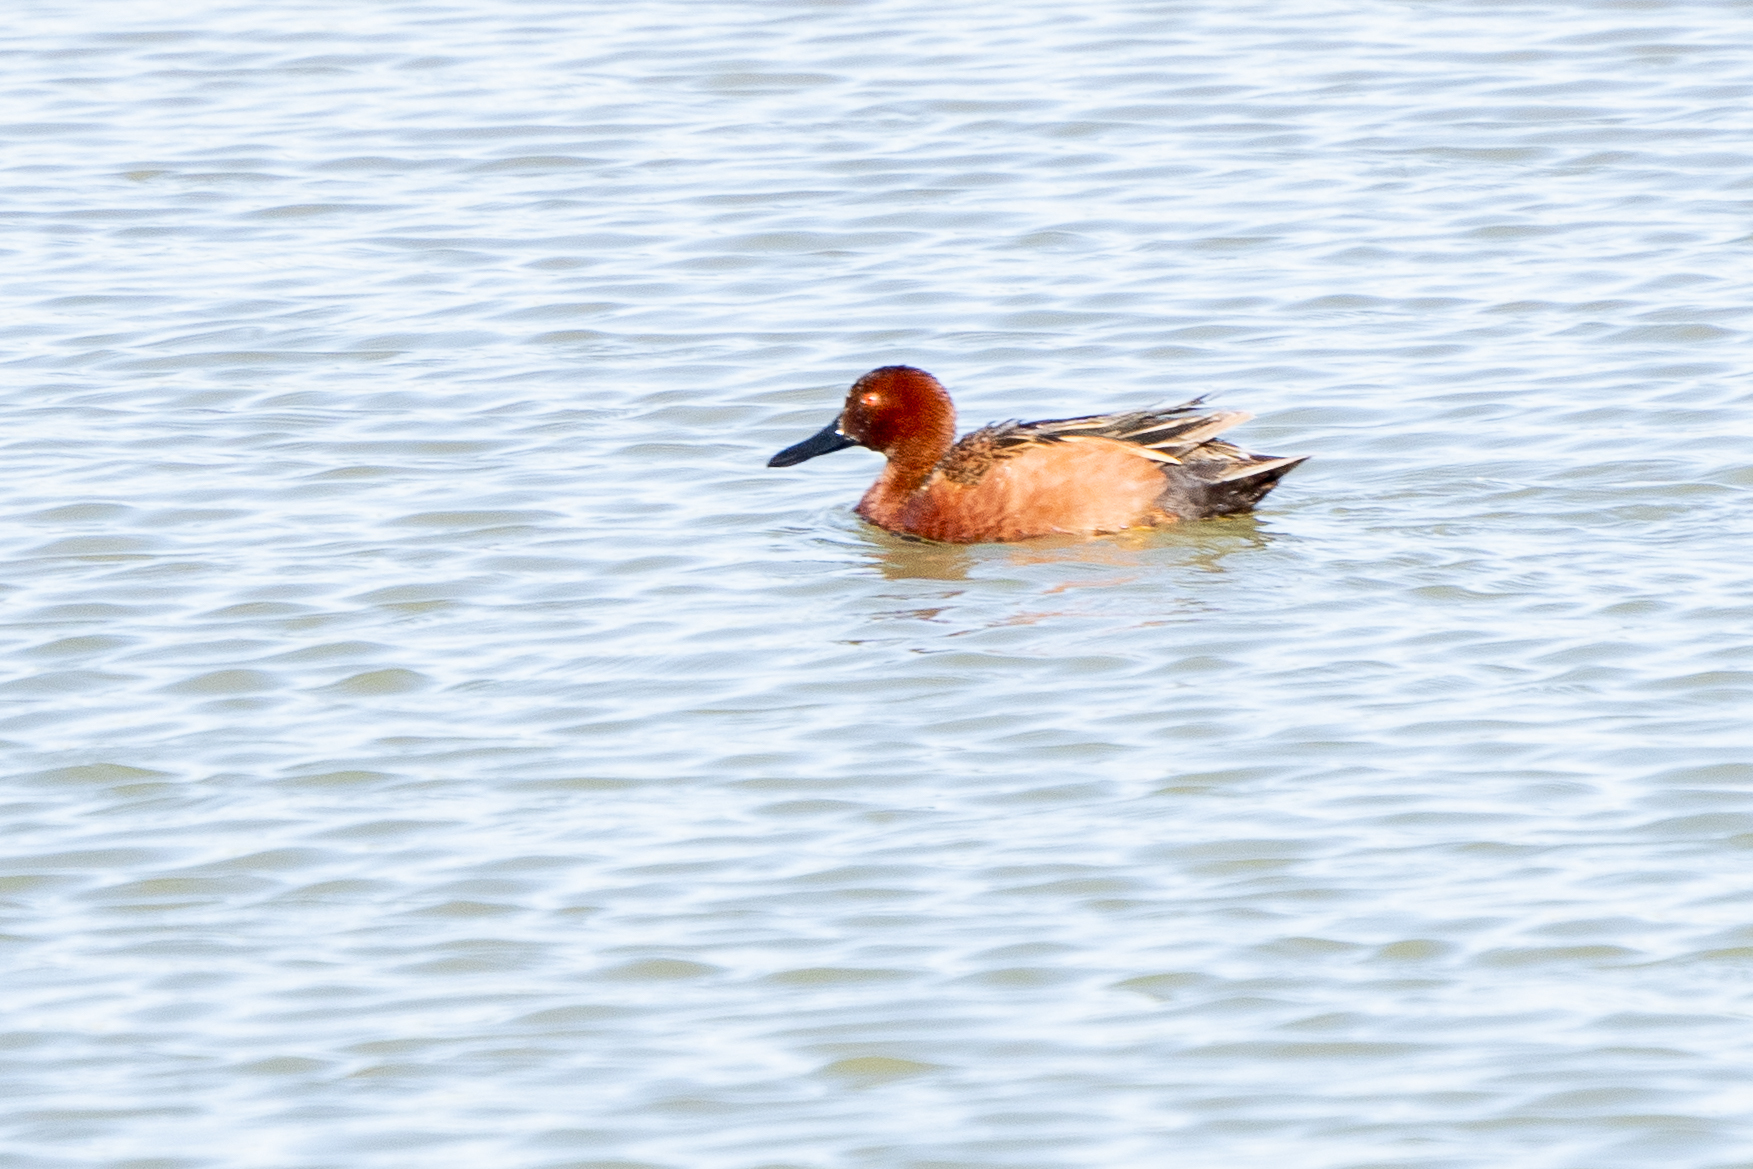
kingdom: Animalia
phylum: Chordata
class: Aves
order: Anseriformes
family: Anatidae
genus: Spatula
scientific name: Spatula cyanoptera
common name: Cinnamon teal
